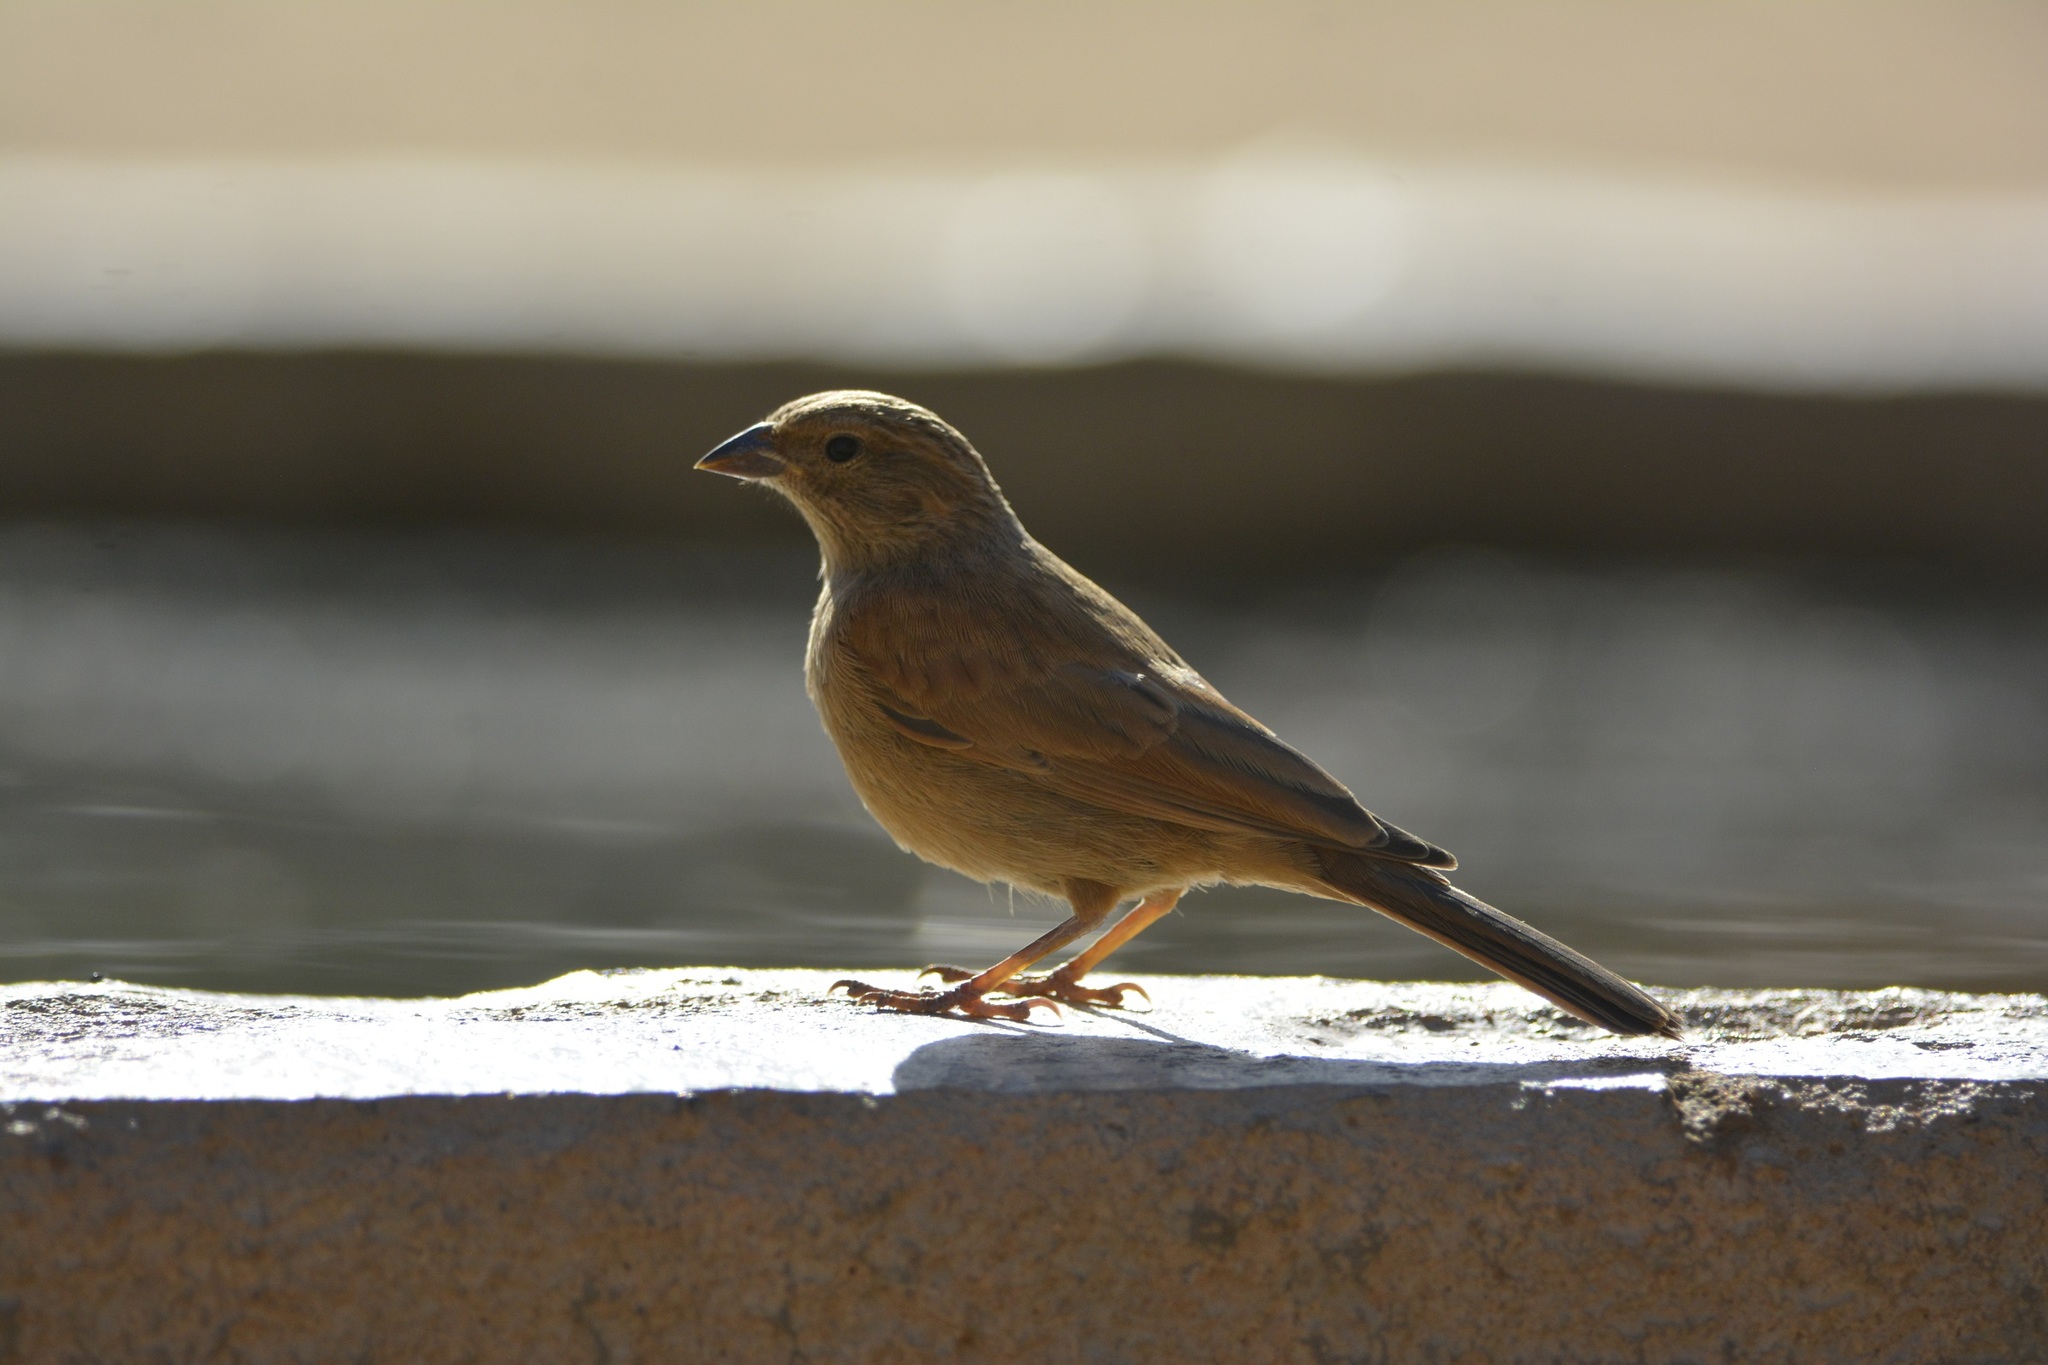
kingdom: Animalia
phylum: Chordata
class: Aves
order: Passeriformes
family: Emberizidae
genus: Emberiza
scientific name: Emberiza sahari
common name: House bunting
